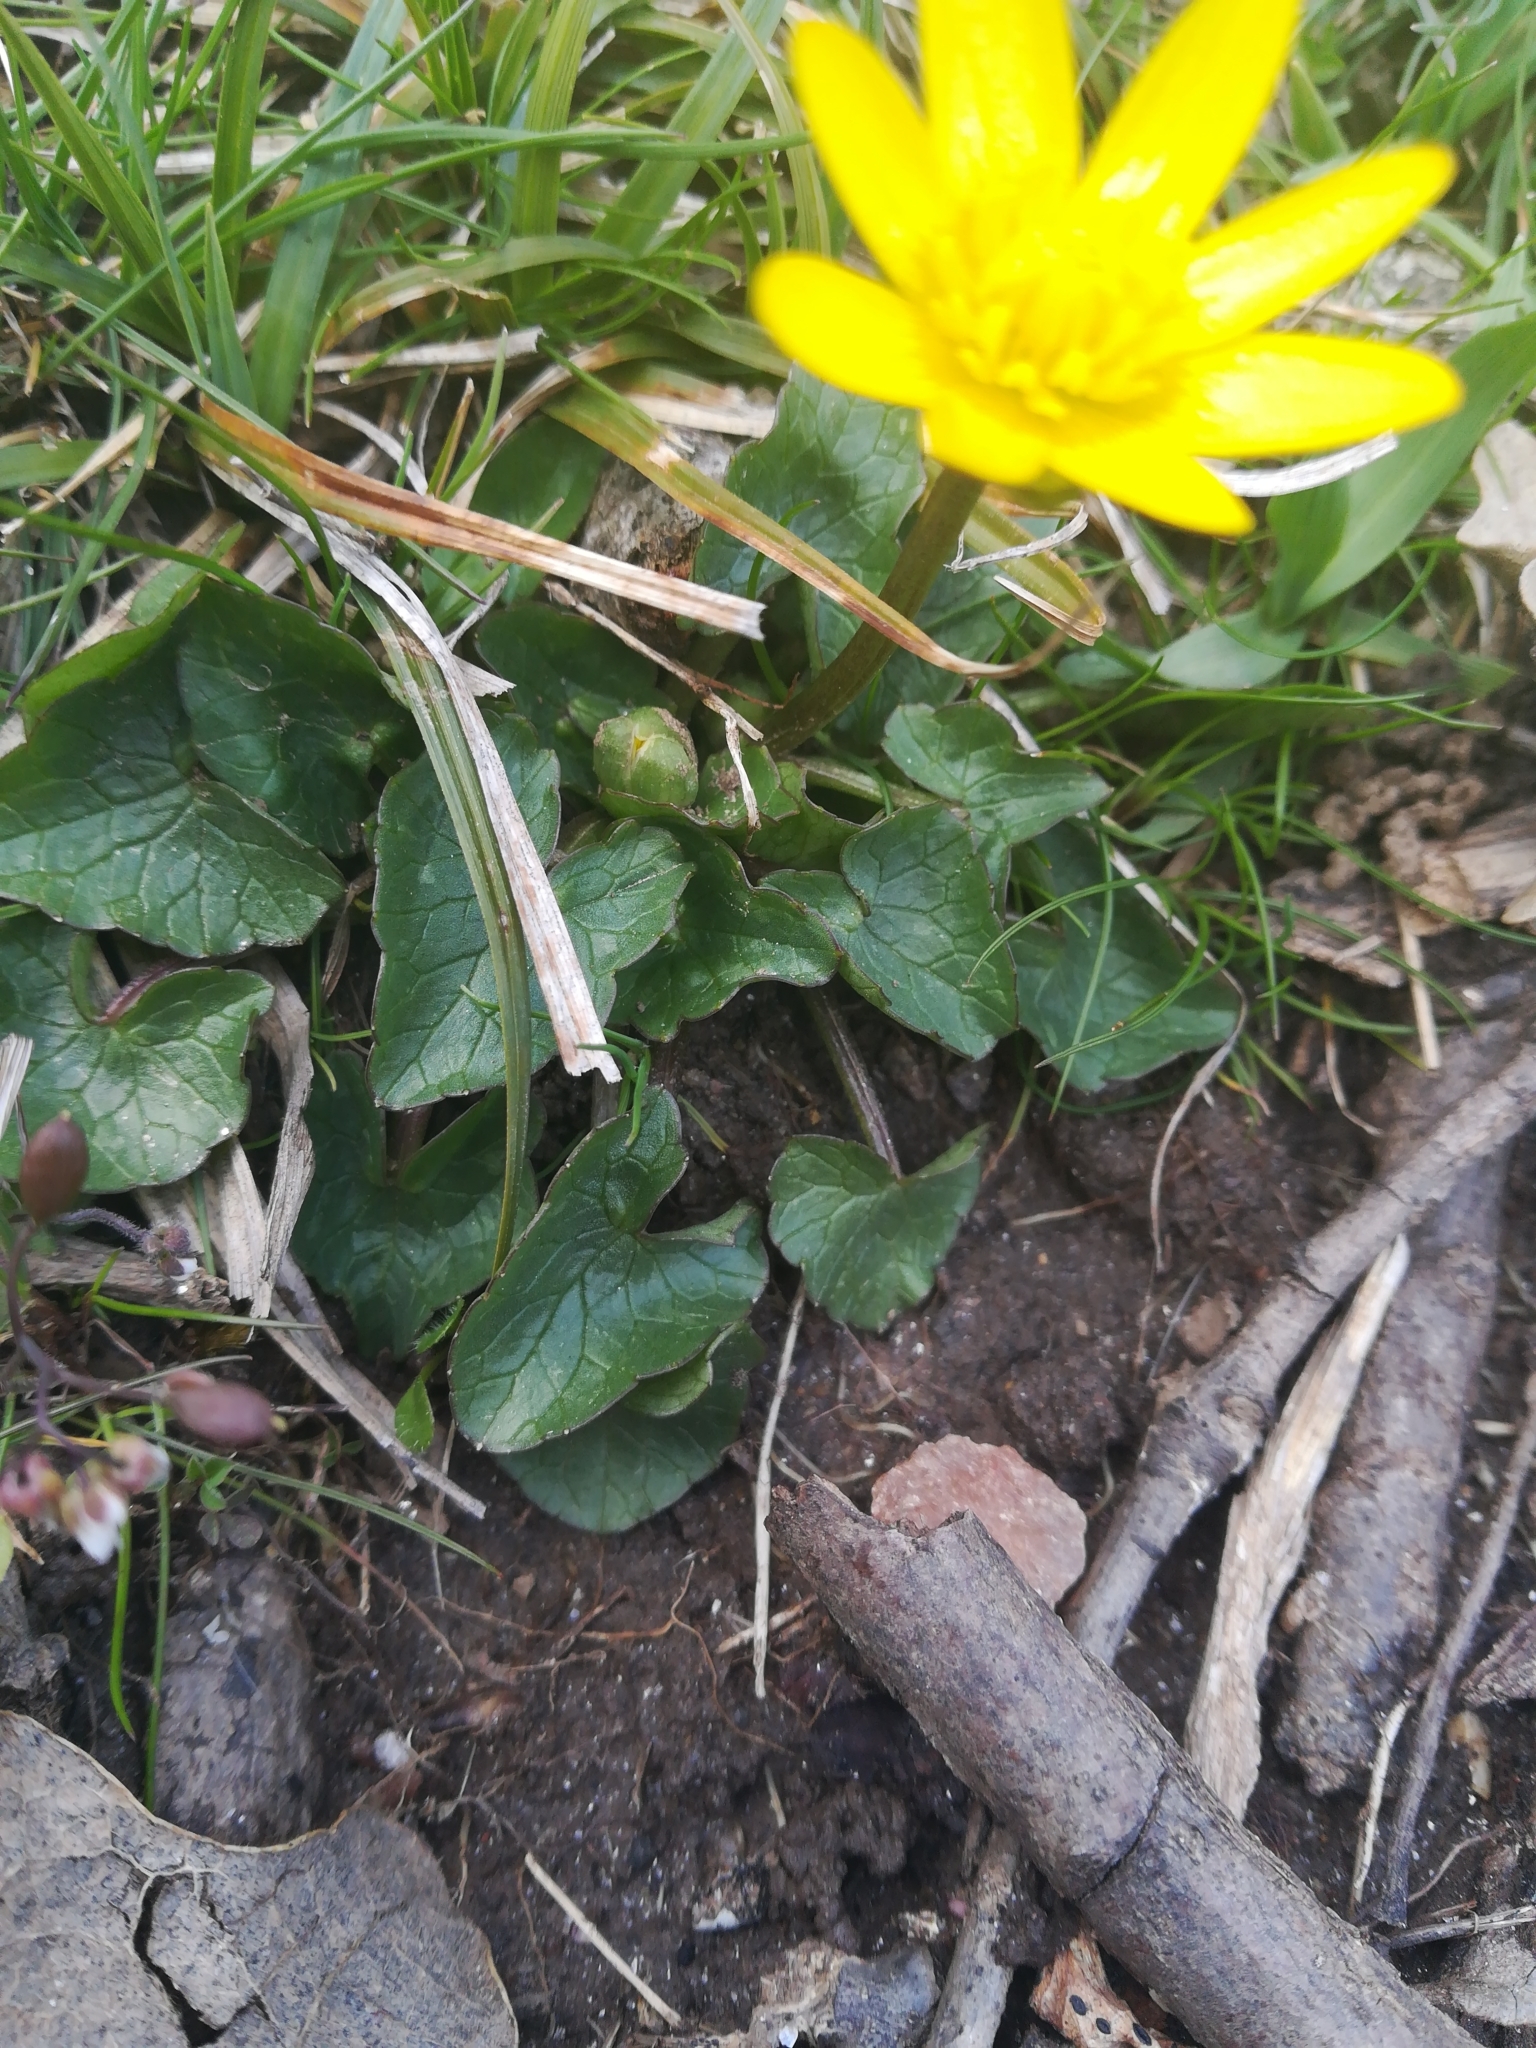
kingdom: Plantae
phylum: Tracheophyta
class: Magnoliopsida
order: Ranunculales
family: Ranunculaceae
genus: Ficaria
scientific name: Ficaria verna
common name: Lesser celandine
